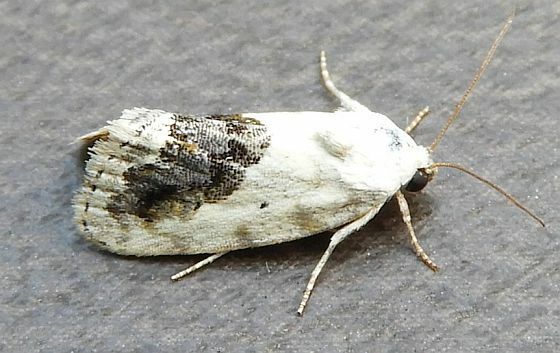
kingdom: Animalia
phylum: Arthropoda
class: Insecta
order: Lepidoptera
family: Noctuidae
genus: Acontia
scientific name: Acontia erastrioides
